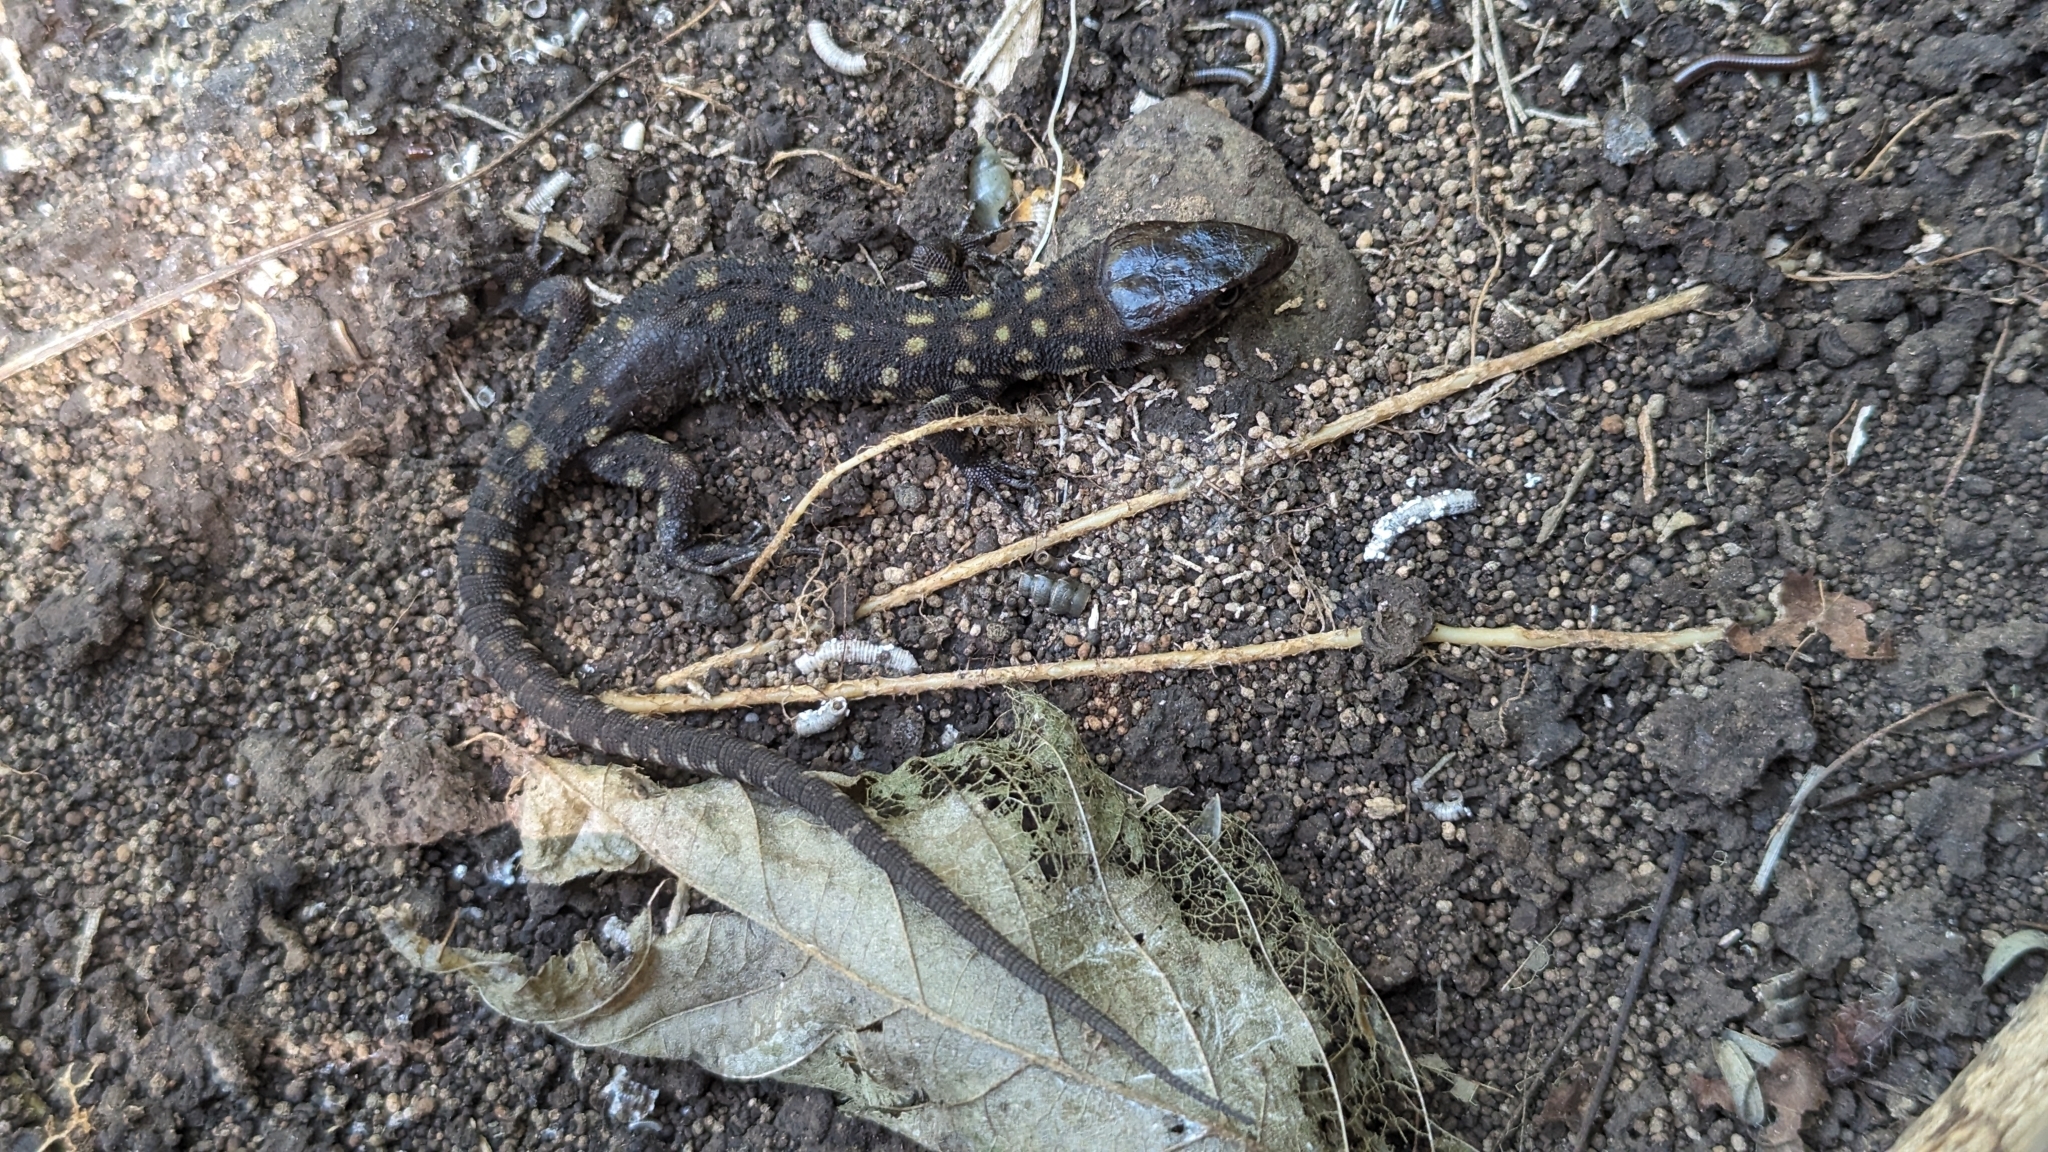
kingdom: Animalia
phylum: Chordata
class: Squamata
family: Xantusiidae
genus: Lepidophyma
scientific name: Lepidophyma reticulatum
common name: Costa rican tropical night lizard
